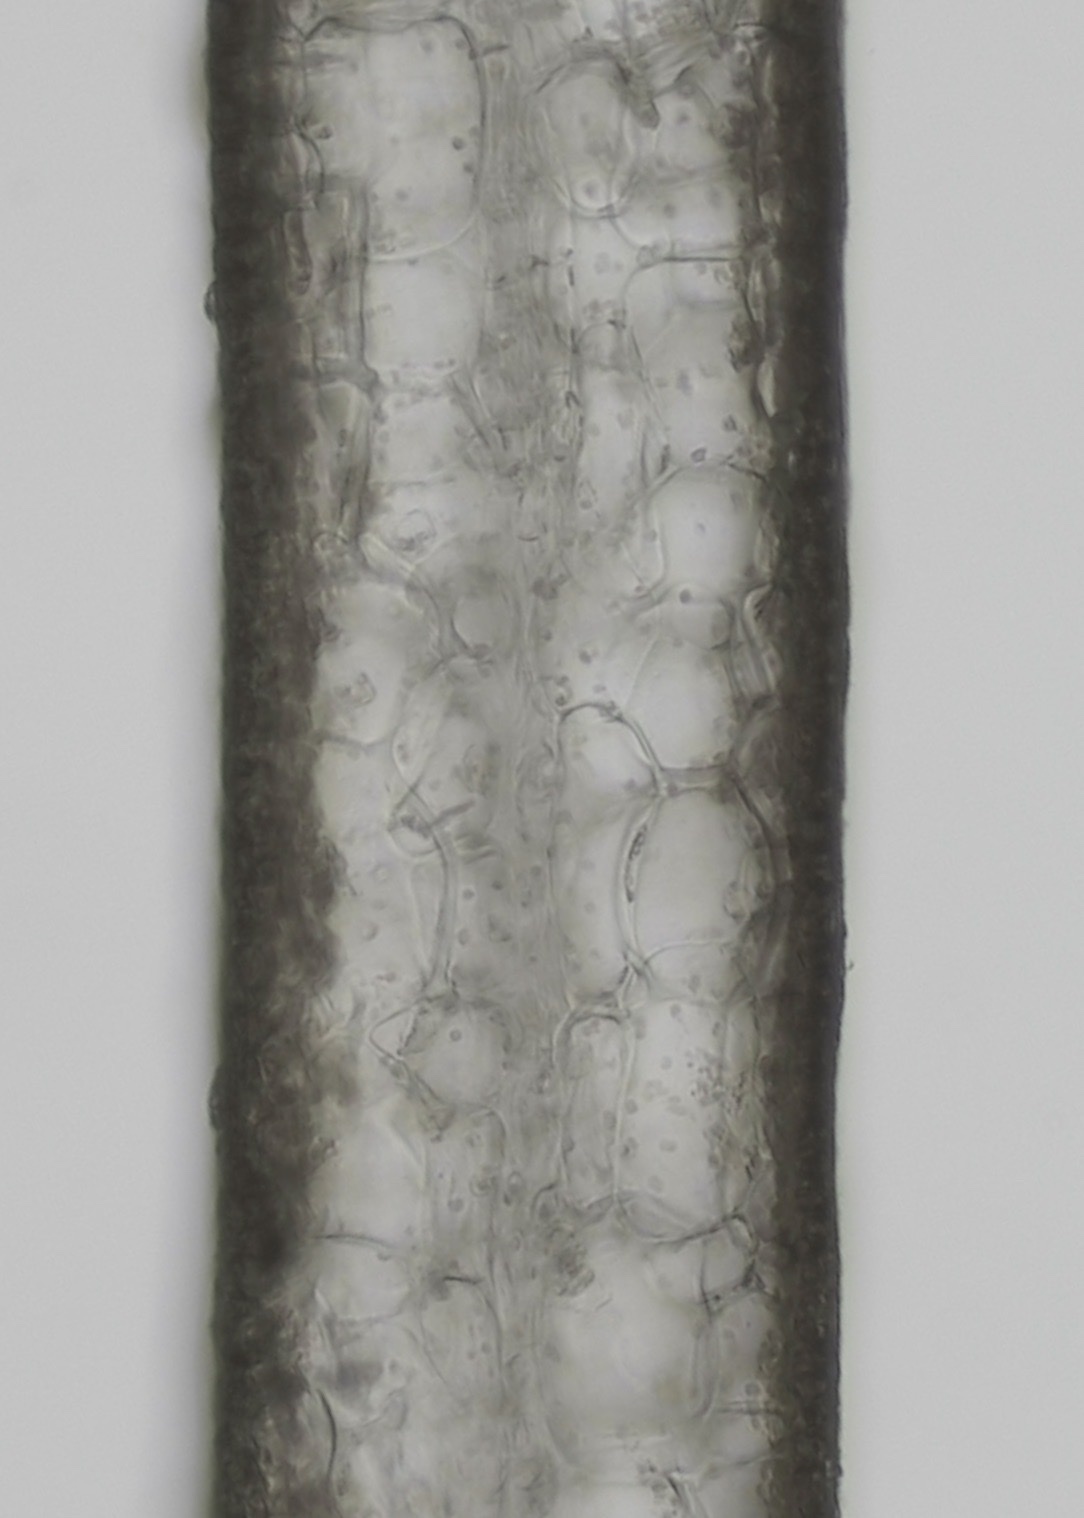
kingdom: Chromista
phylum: Ochrophyta
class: Phaeophyceae
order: Laminariales
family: Laminariaceae
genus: Saccharina
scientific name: Saccharina latissima
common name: Poor man's weather glass
